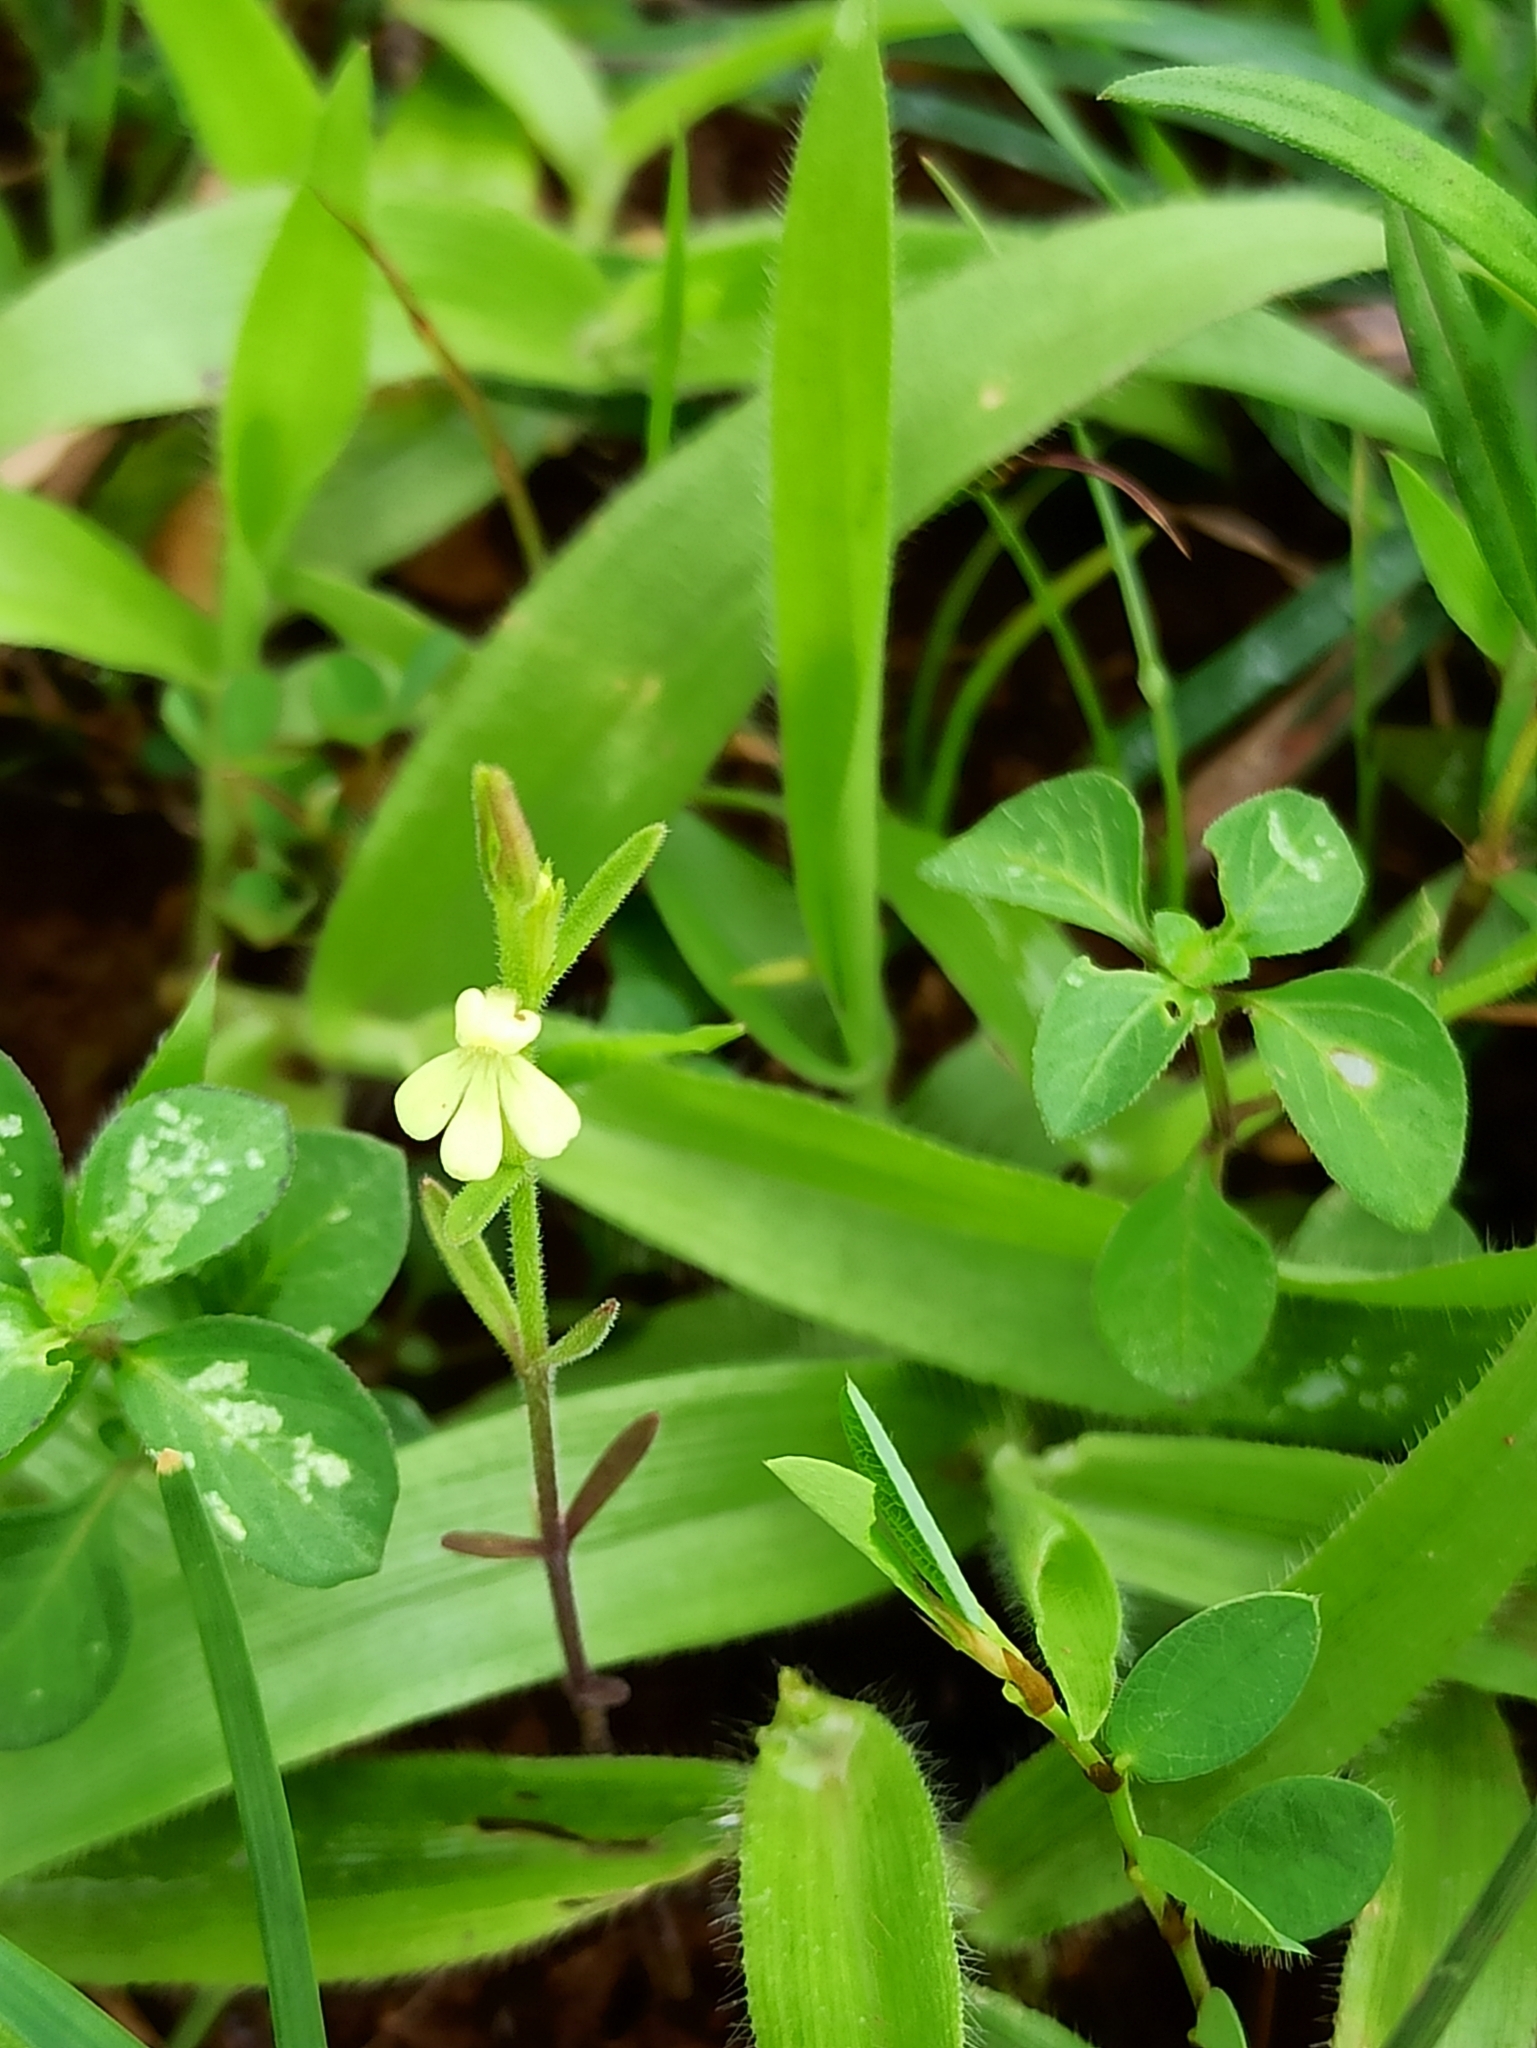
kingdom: Plantae
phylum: Tracheophyta
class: Magnoliopsida
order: Lamiales
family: Orobanchaceae
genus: Striga
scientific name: Striga asiatica
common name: Asiatic witchweed
